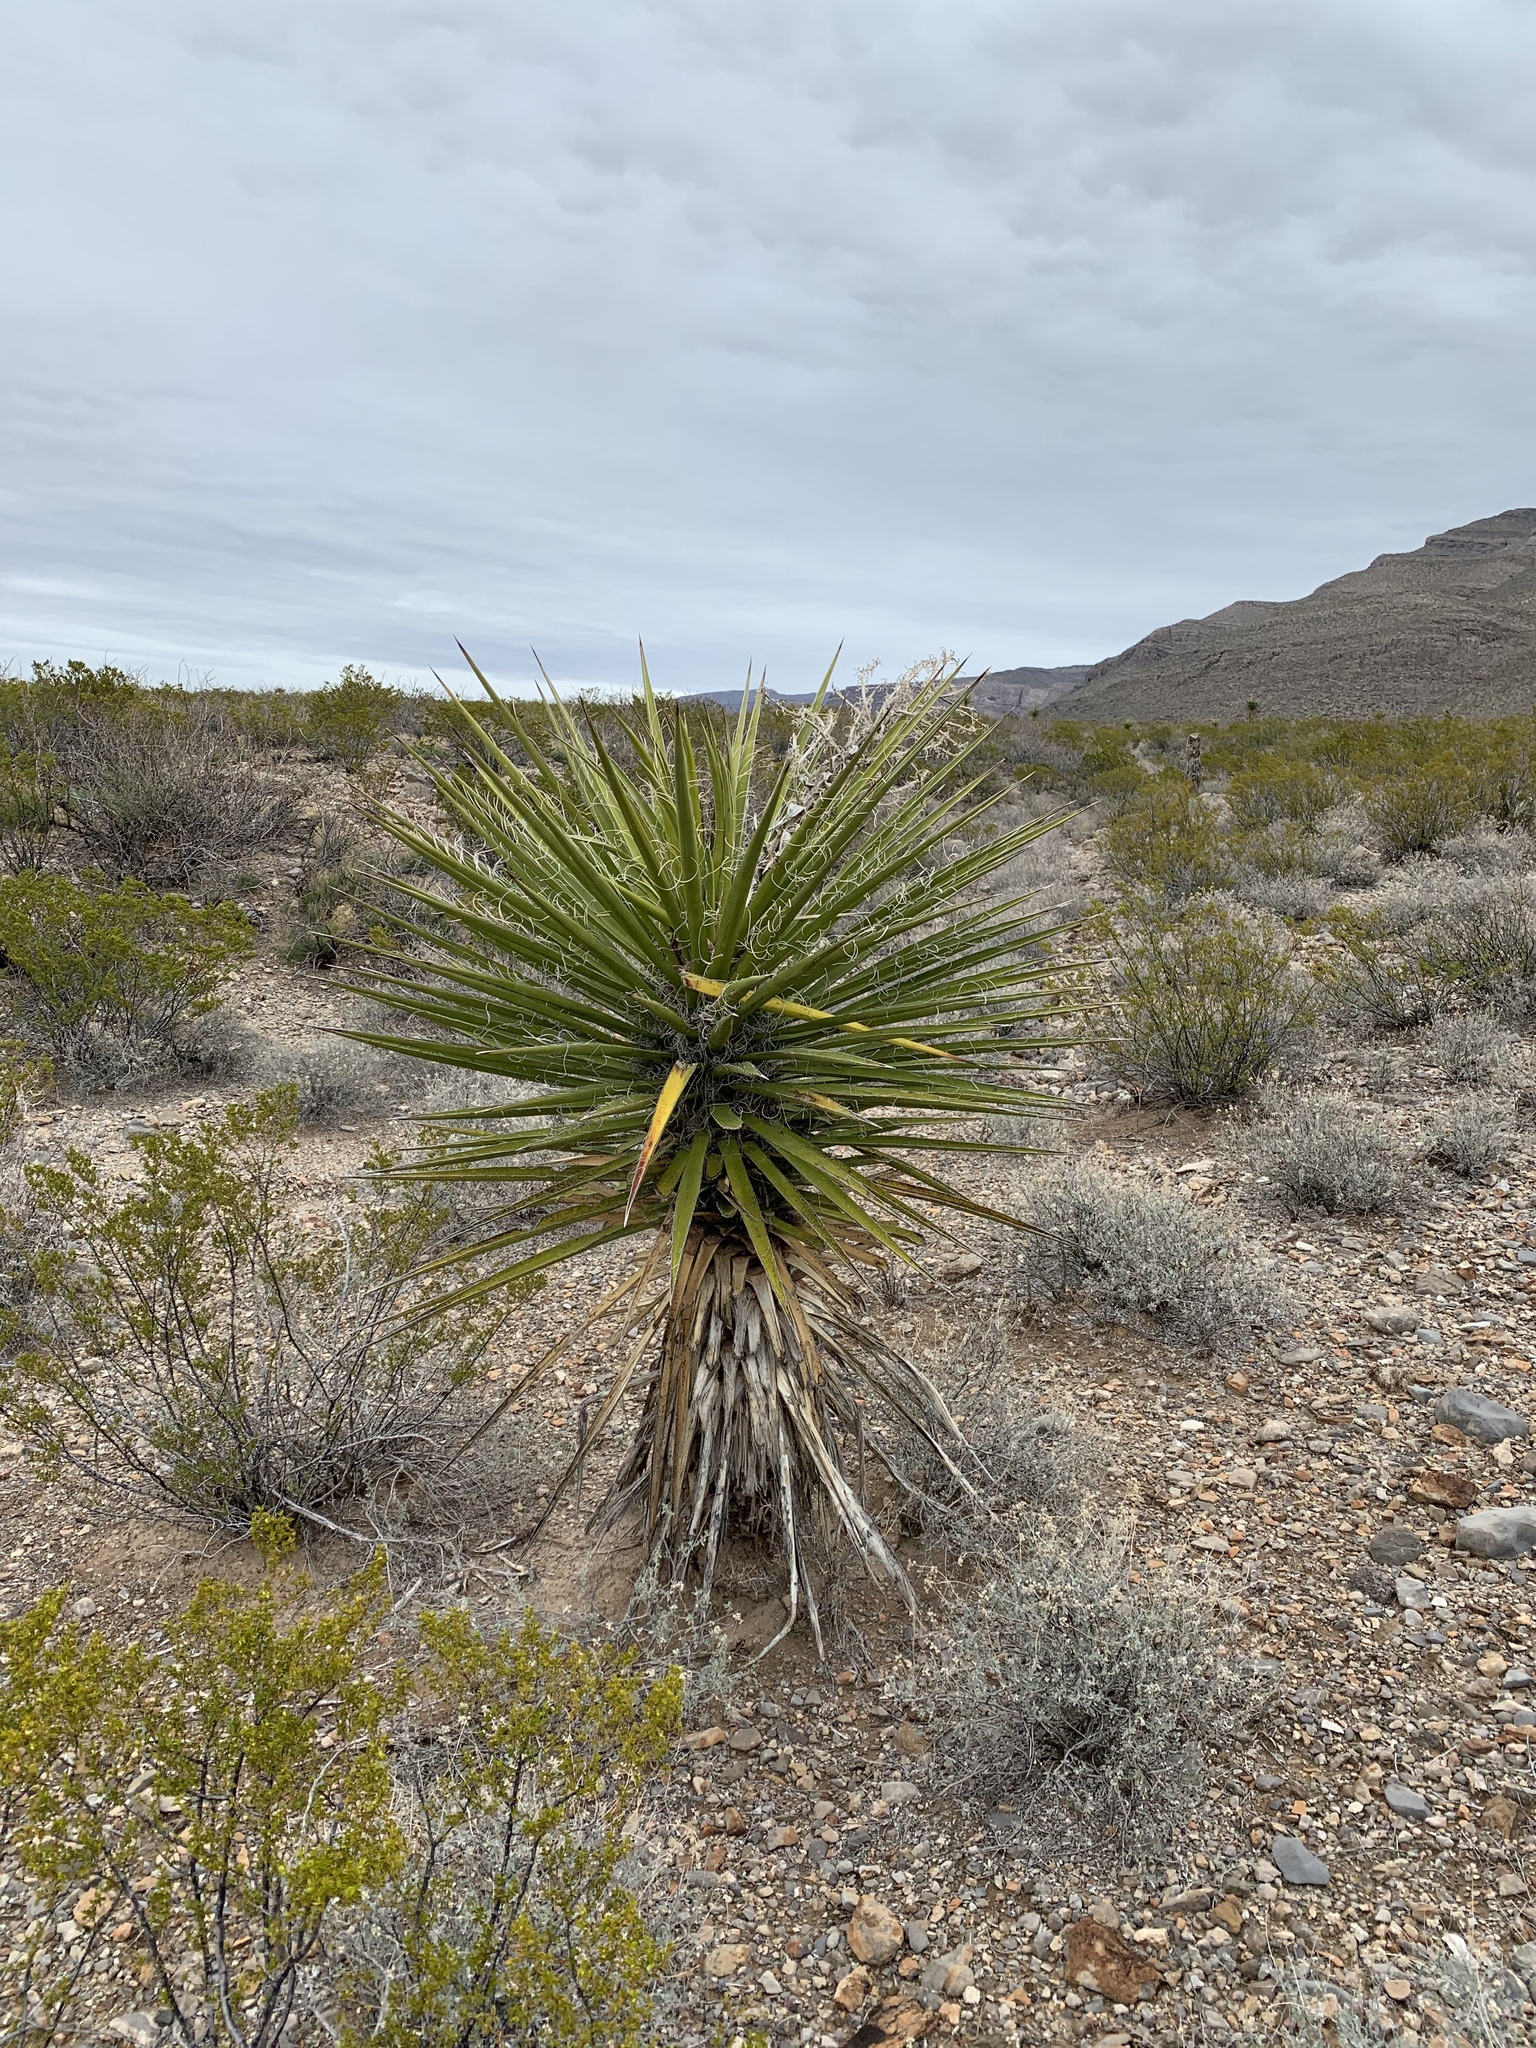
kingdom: Plantae
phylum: Tracheophyta
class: Liliopsida
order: Asparagales
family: Asparagaceae
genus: Yucca
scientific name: Yucca treculiana
